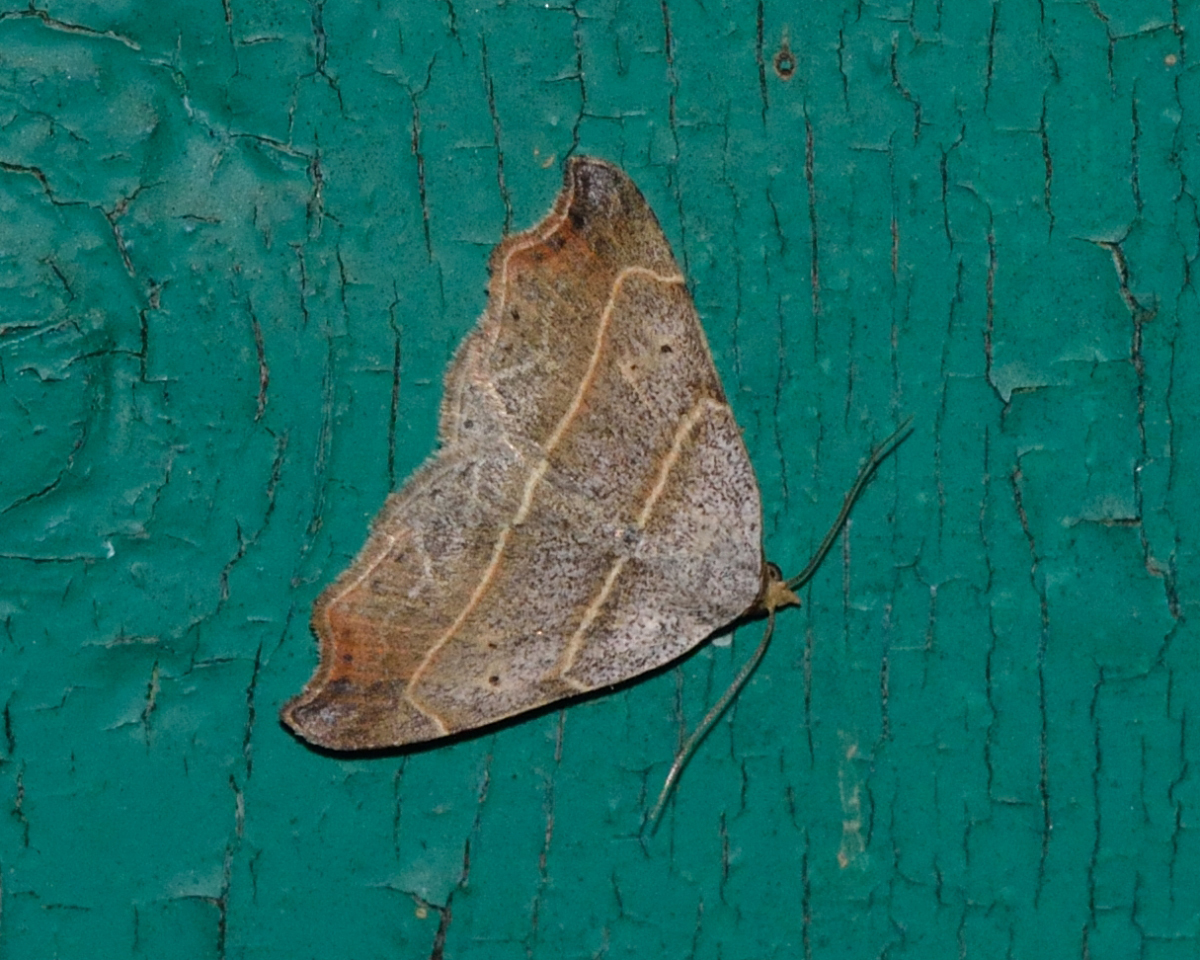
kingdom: Animalia
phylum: Arthropoda
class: Insecta
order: Lepidoptera
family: Erebidae
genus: Laspeyria
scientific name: Laspeyria flexula
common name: Beautiful hook-tip
